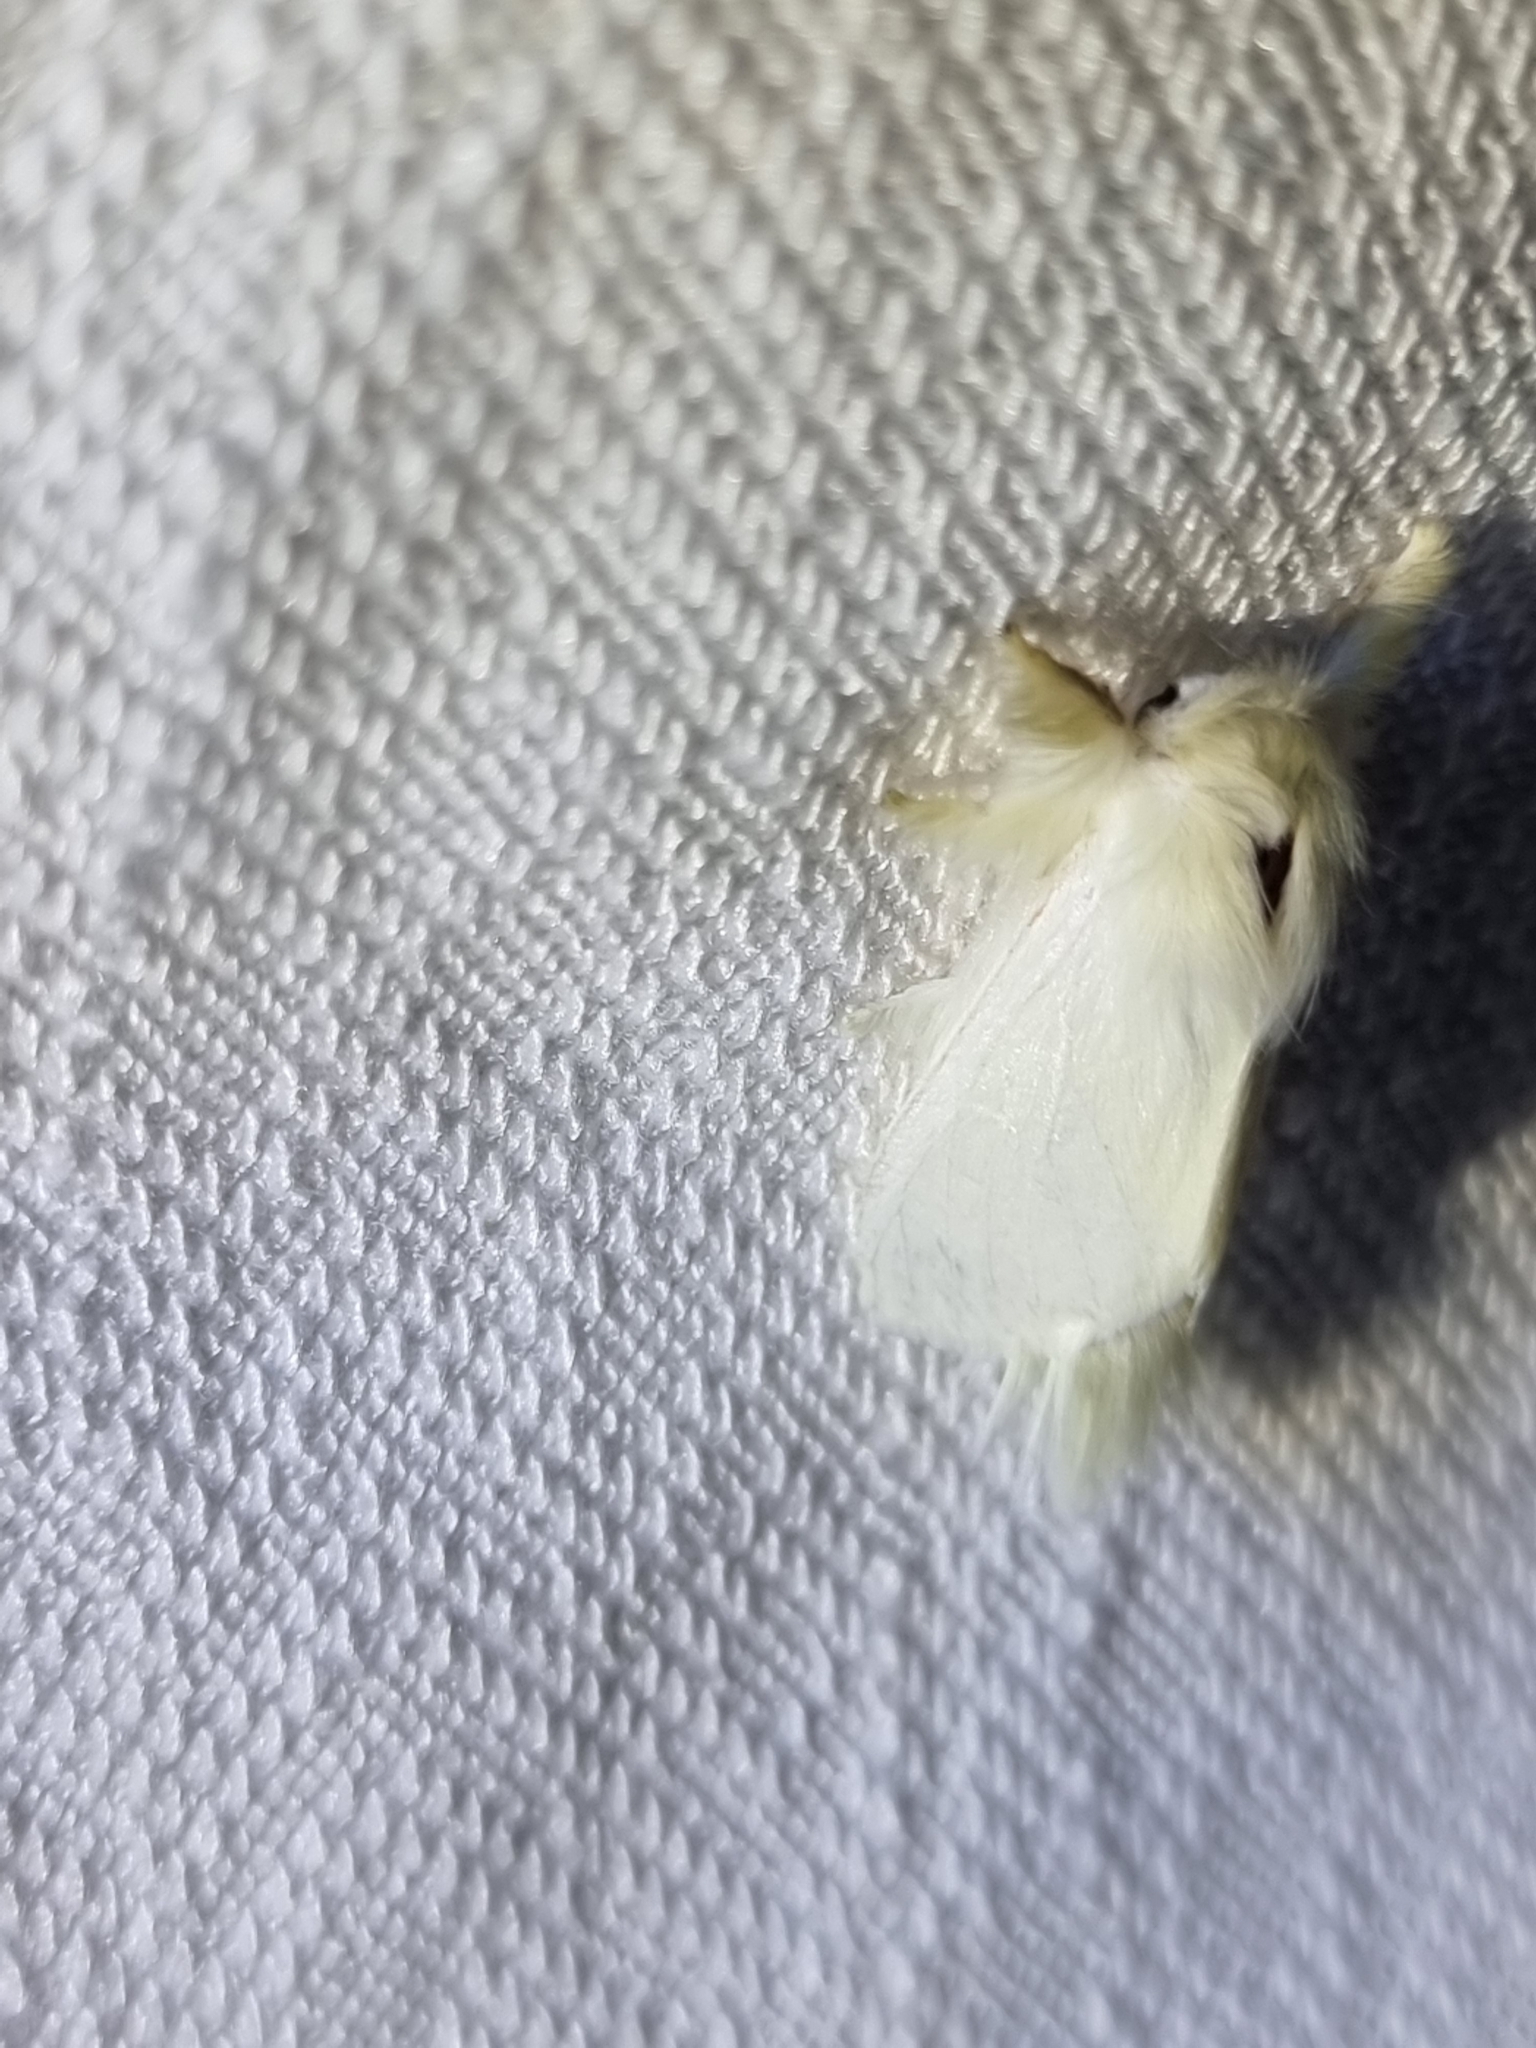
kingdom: Animalia
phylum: Arthropoda
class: Insecta
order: Lepidoptera
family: Notodontidae
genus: Trichiocercus
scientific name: Trichiocercus sparshalli
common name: Long-tailed satin
